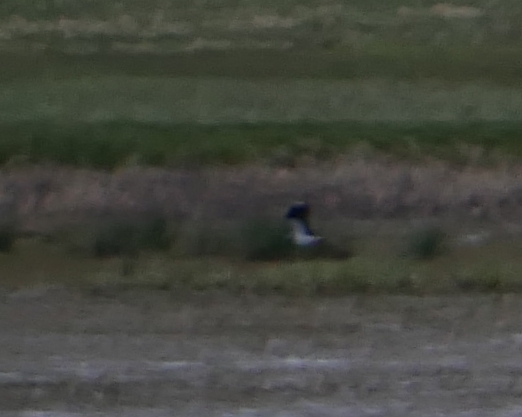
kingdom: Animalia
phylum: Chordata
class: Aves
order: Charadriiformes
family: Charadriidae
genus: Vanellus
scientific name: Vanellus vanellus
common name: Northern lapwing
